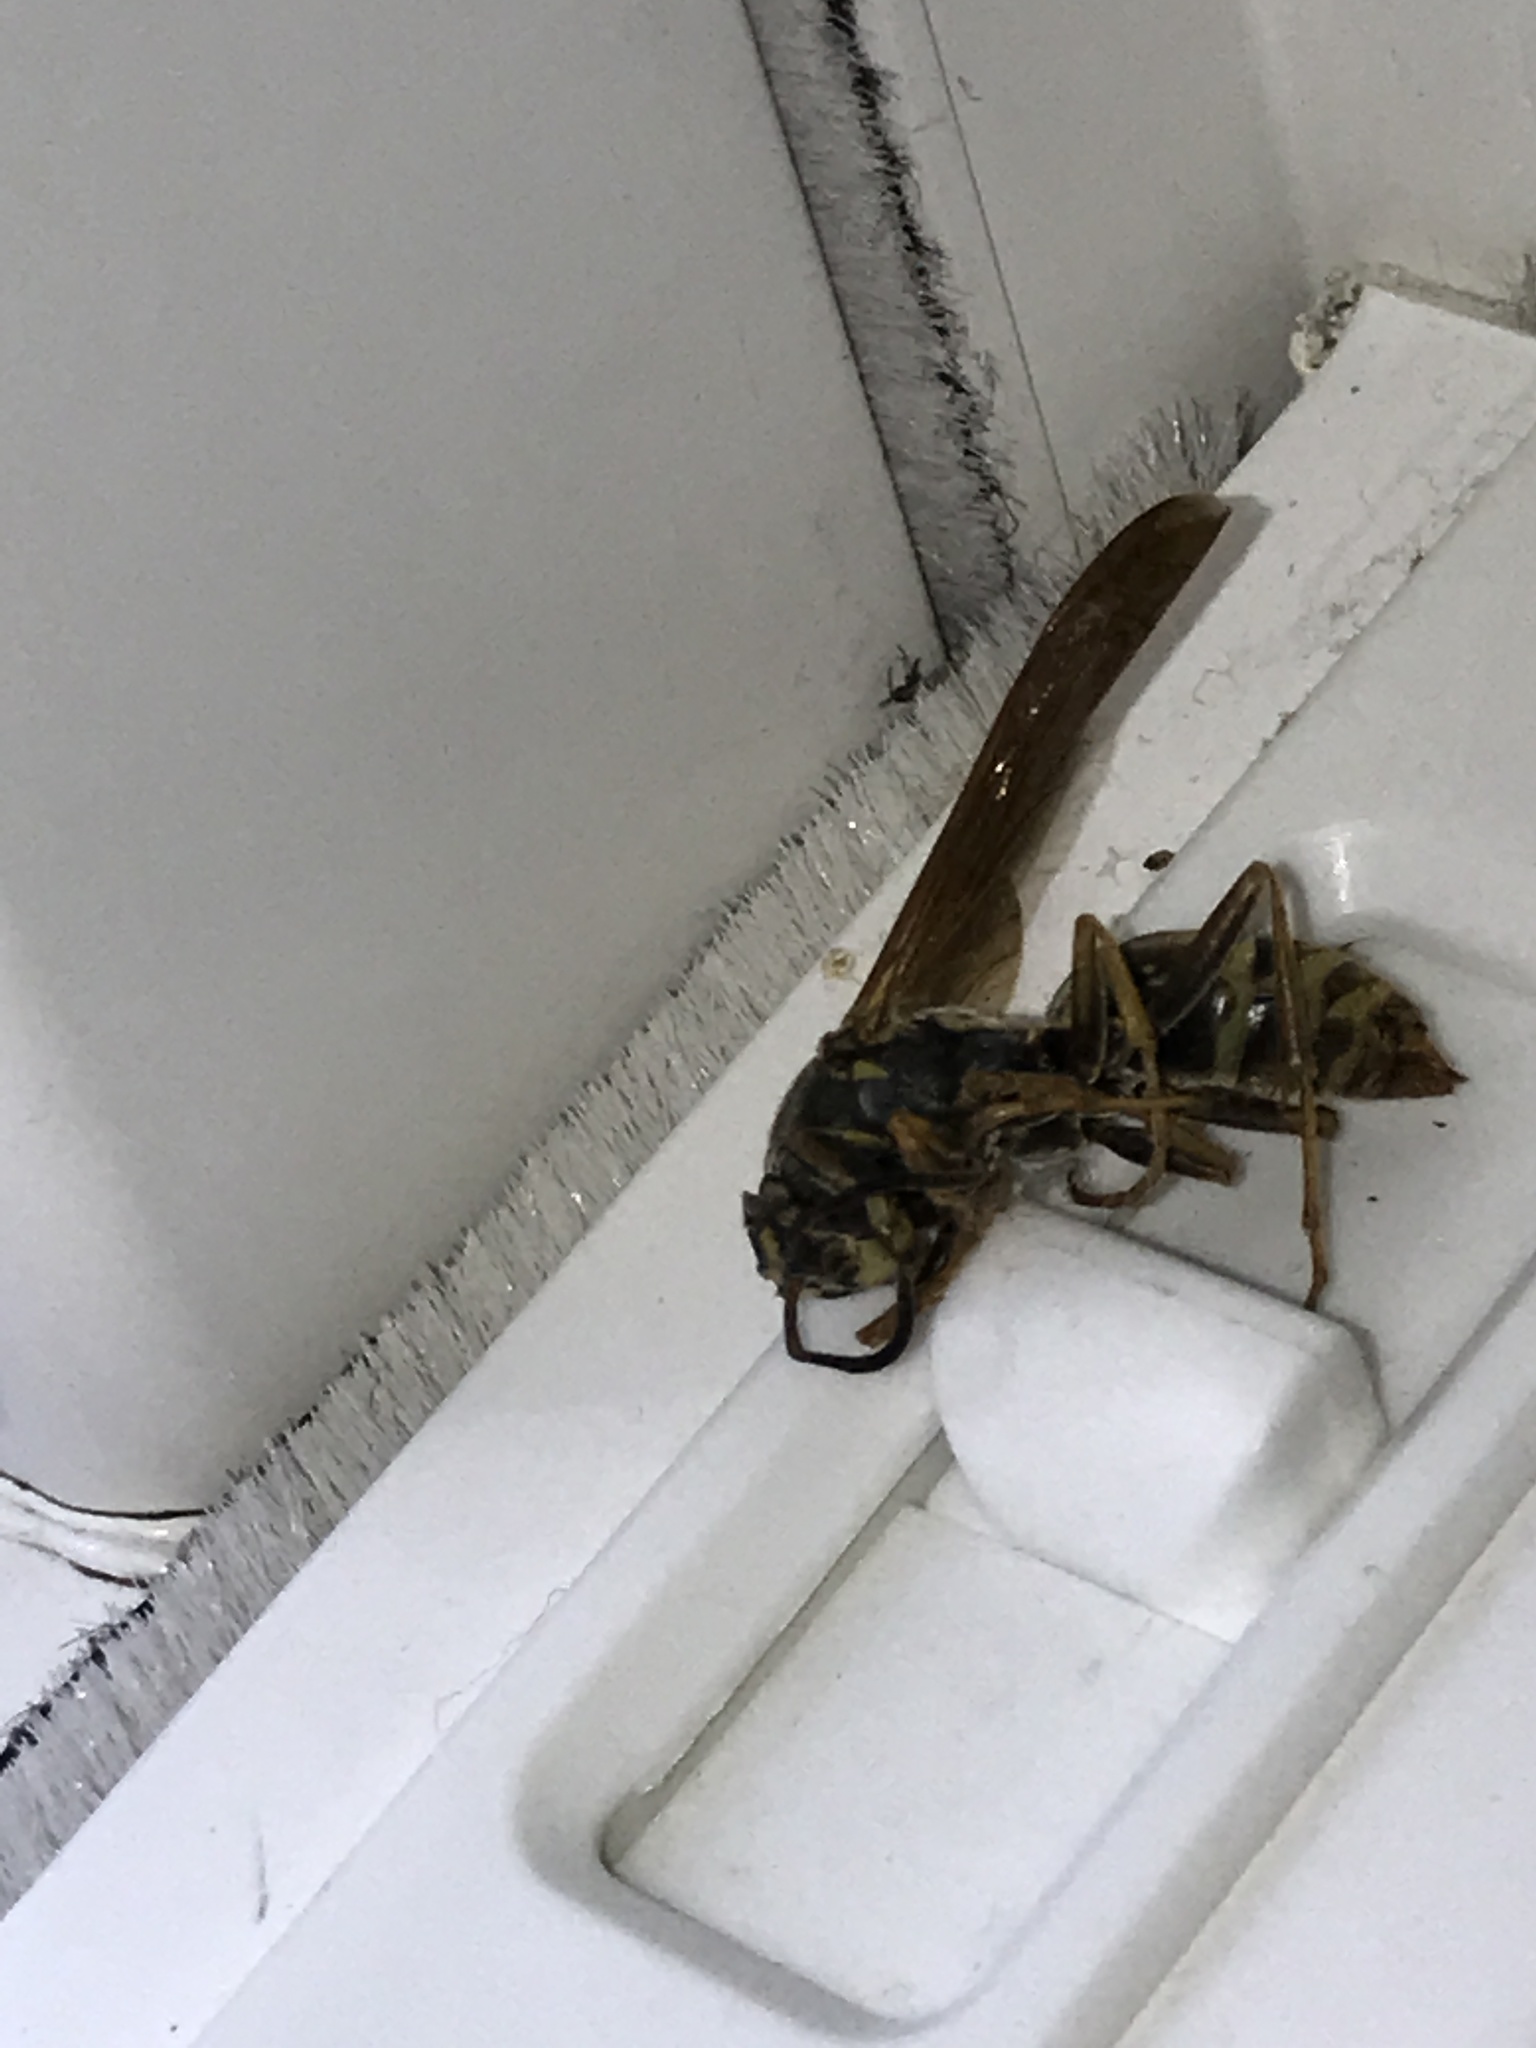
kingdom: Animalia
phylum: Arthropoda
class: Insecta
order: Hymenoptera
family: Eumenidae
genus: Polistes
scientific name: Polistes fuscatus
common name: Dark paper wasp
